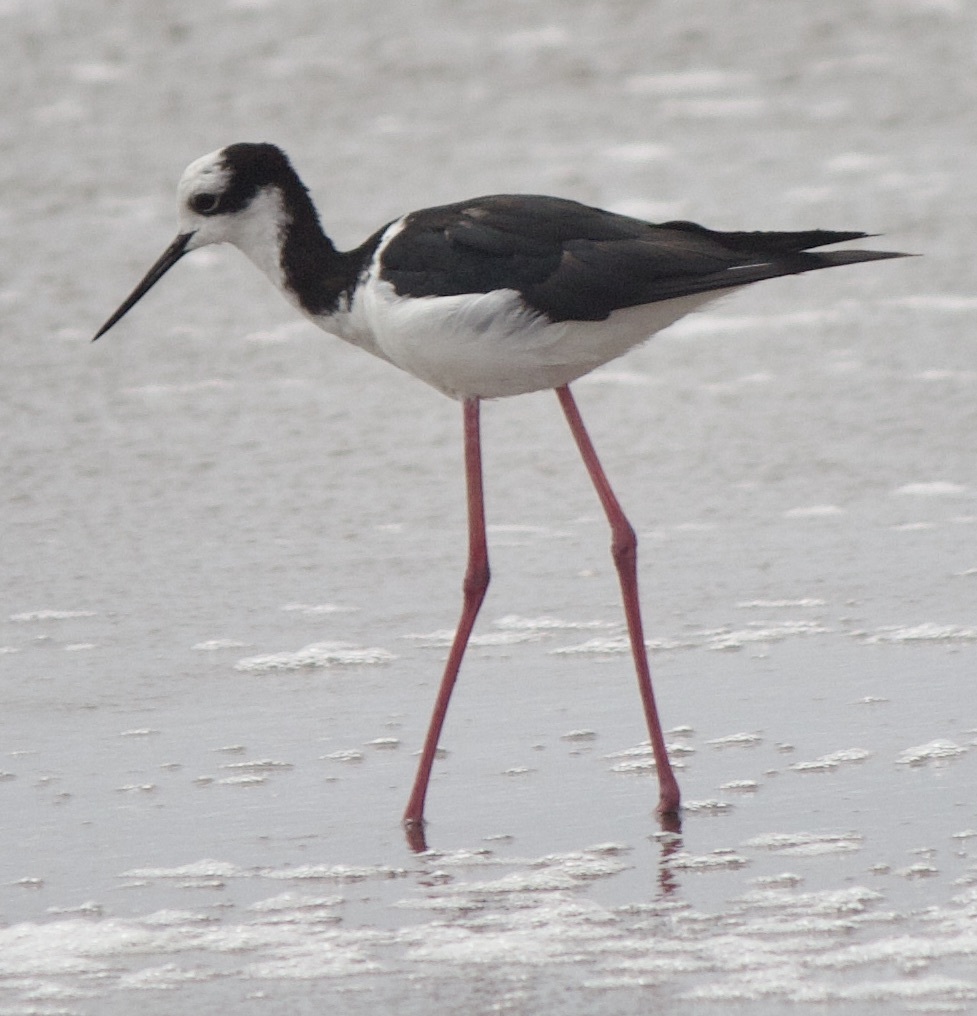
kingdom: Animalia
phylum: Chordata
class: Aves
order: Charadriiformes
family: Recurvirostridae
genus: Himantopus
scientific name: Himantopus mexicanus
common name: Black-necked stilt
